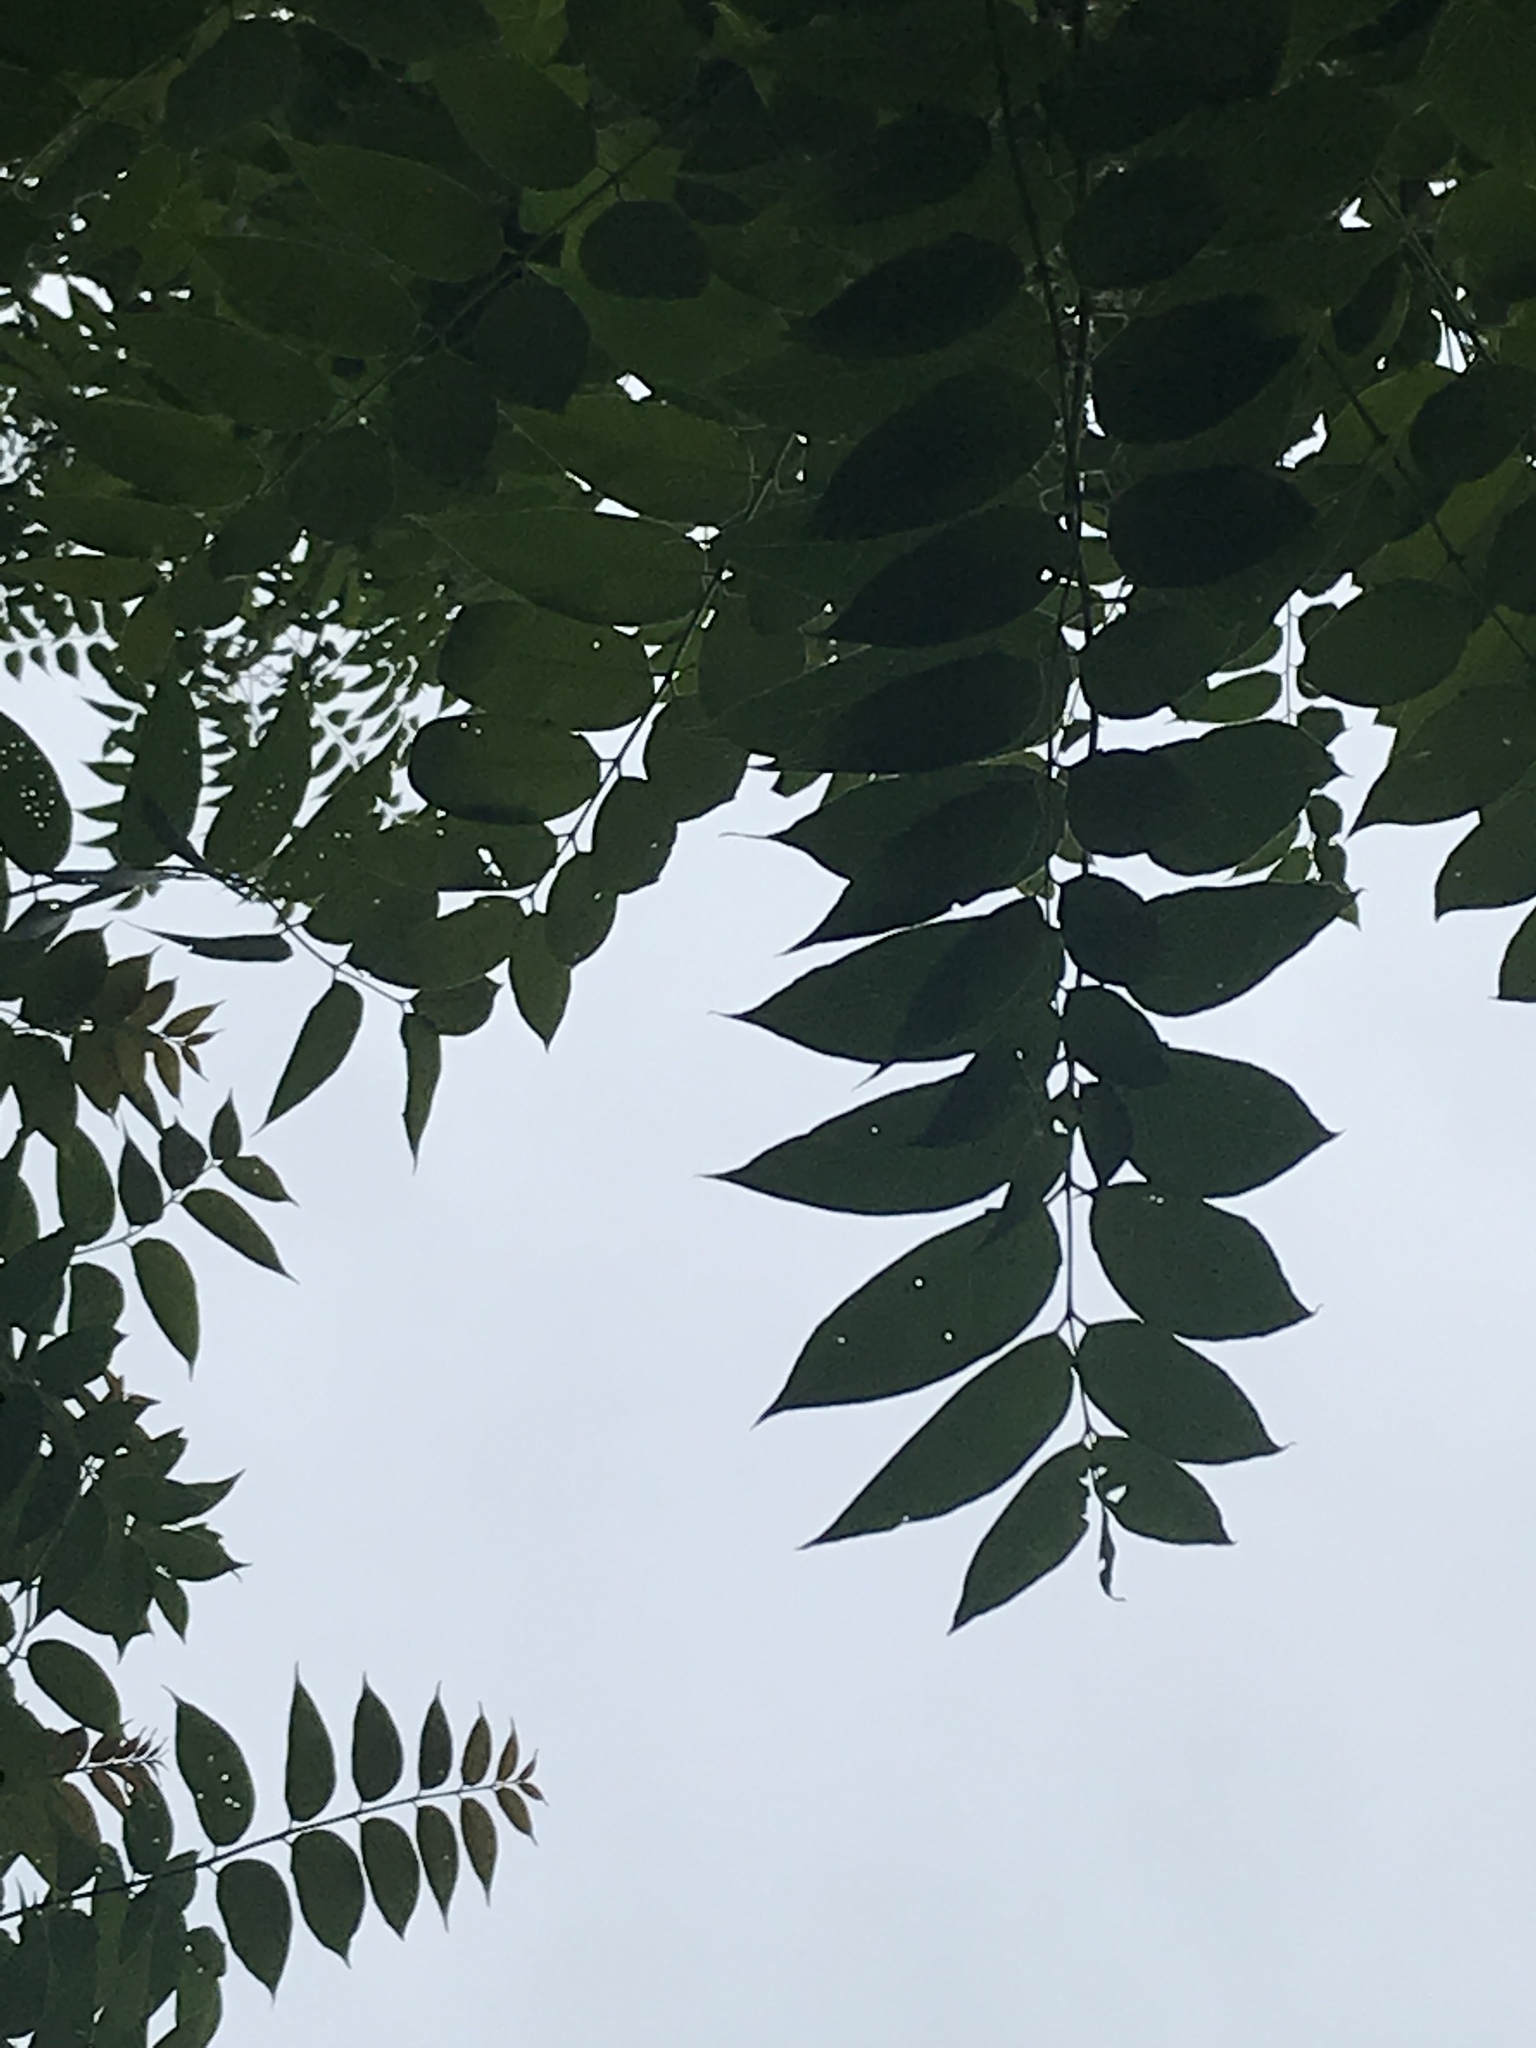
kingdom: Plantae
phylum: Tracheophyta
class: Magnoliopsida
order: Sapindales
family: Simaroubaceae
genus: Ailanthus
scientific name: Ailanthus altissima
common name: Tree-of-heaven
